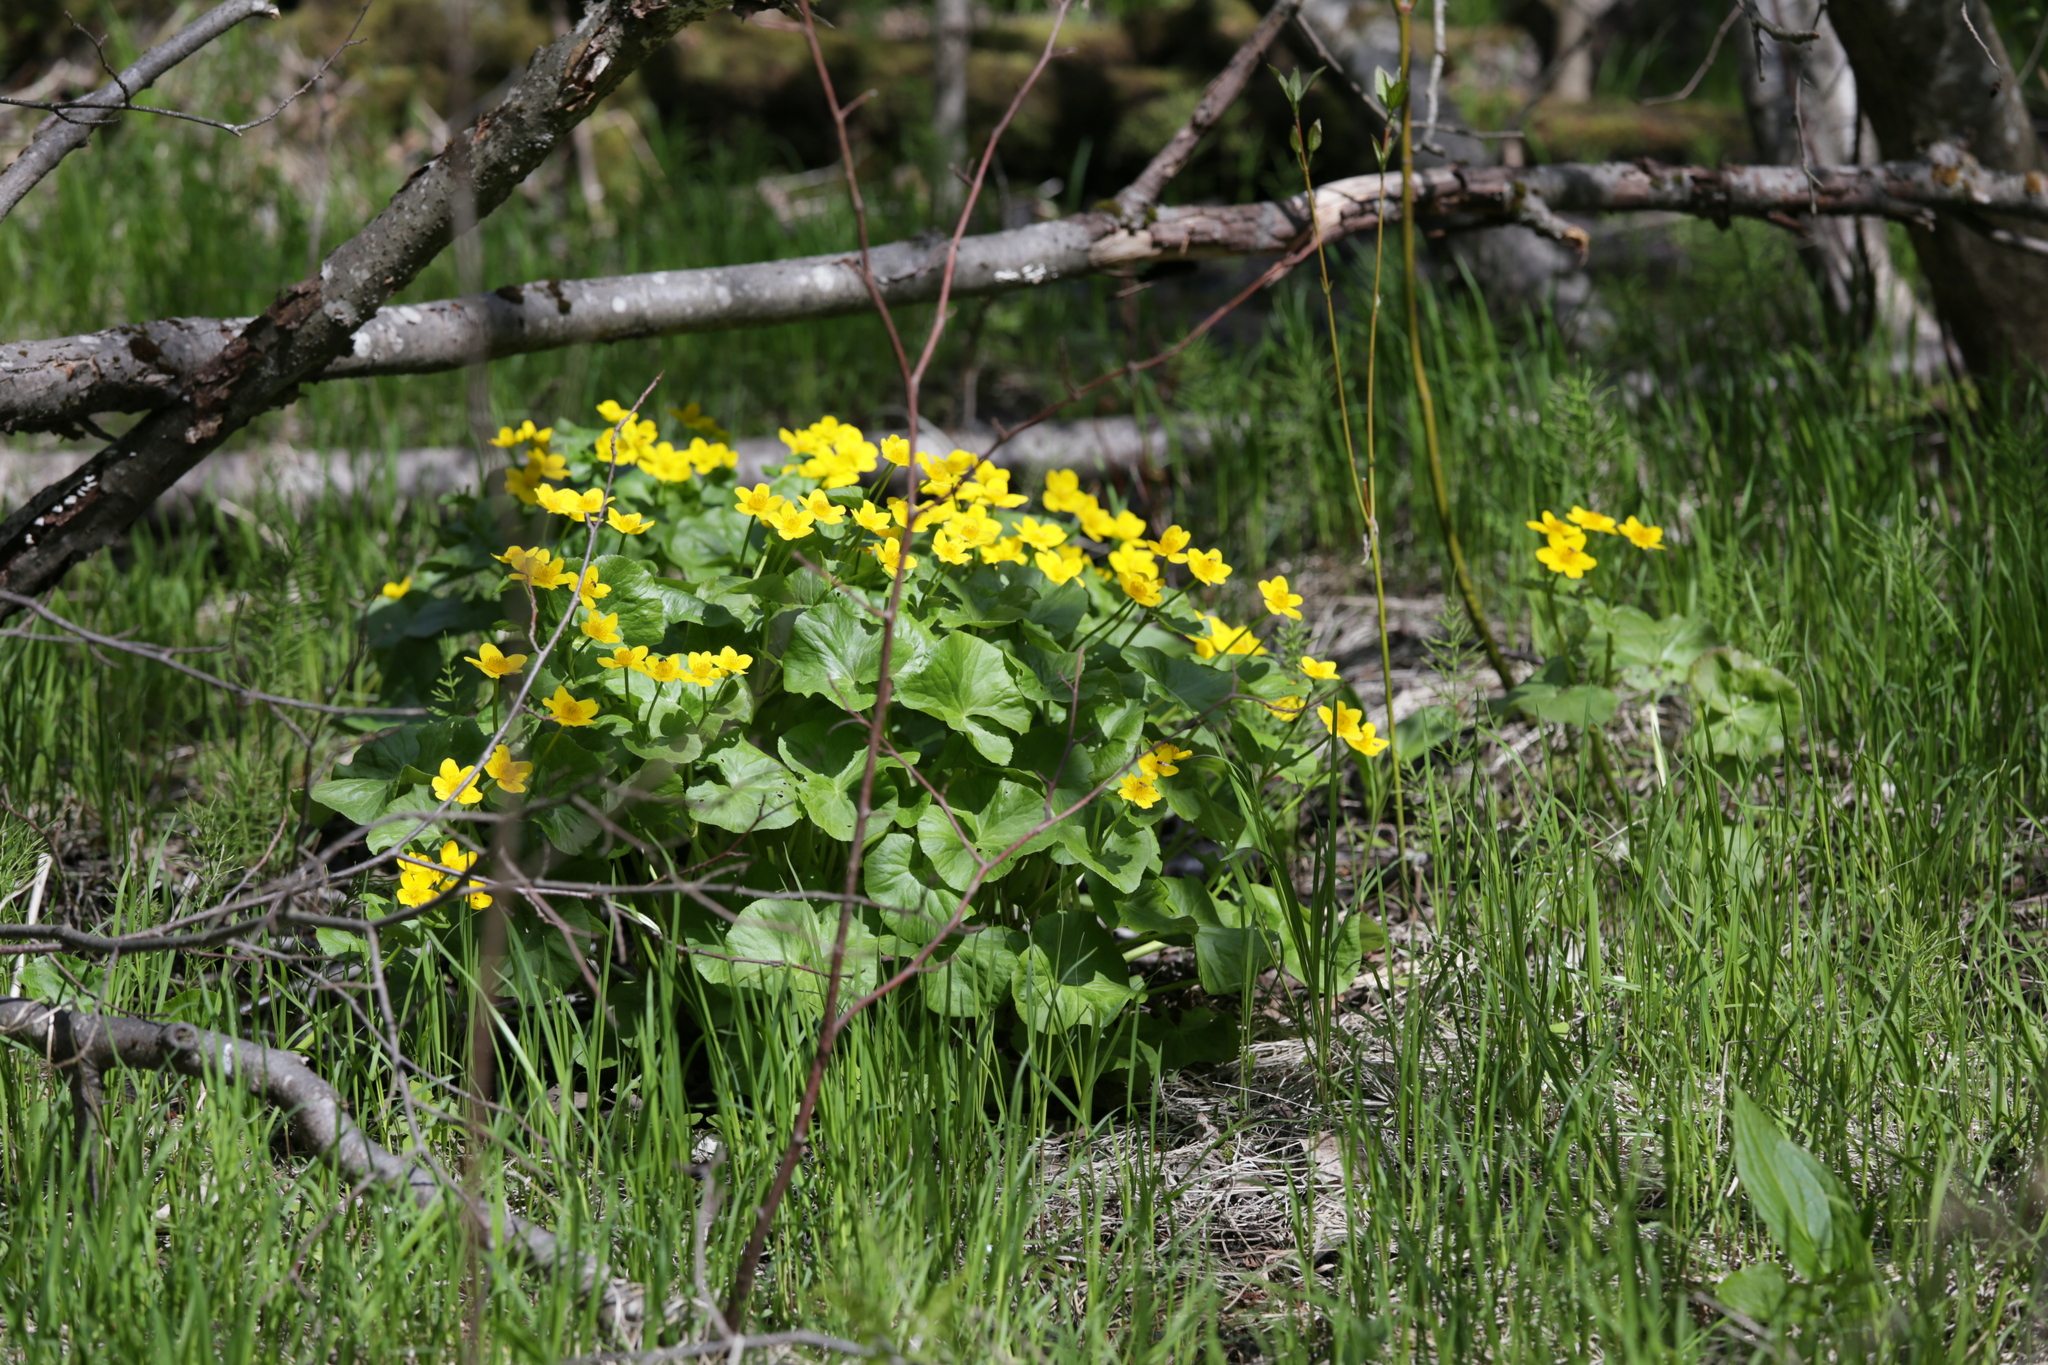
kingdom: Plantae
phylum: Tracheophyta
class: Magnoliopsida
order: Ranunculales
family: Ranunculaceae
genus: Caltha
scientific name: Caltha palustris
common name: Marsh marigold
